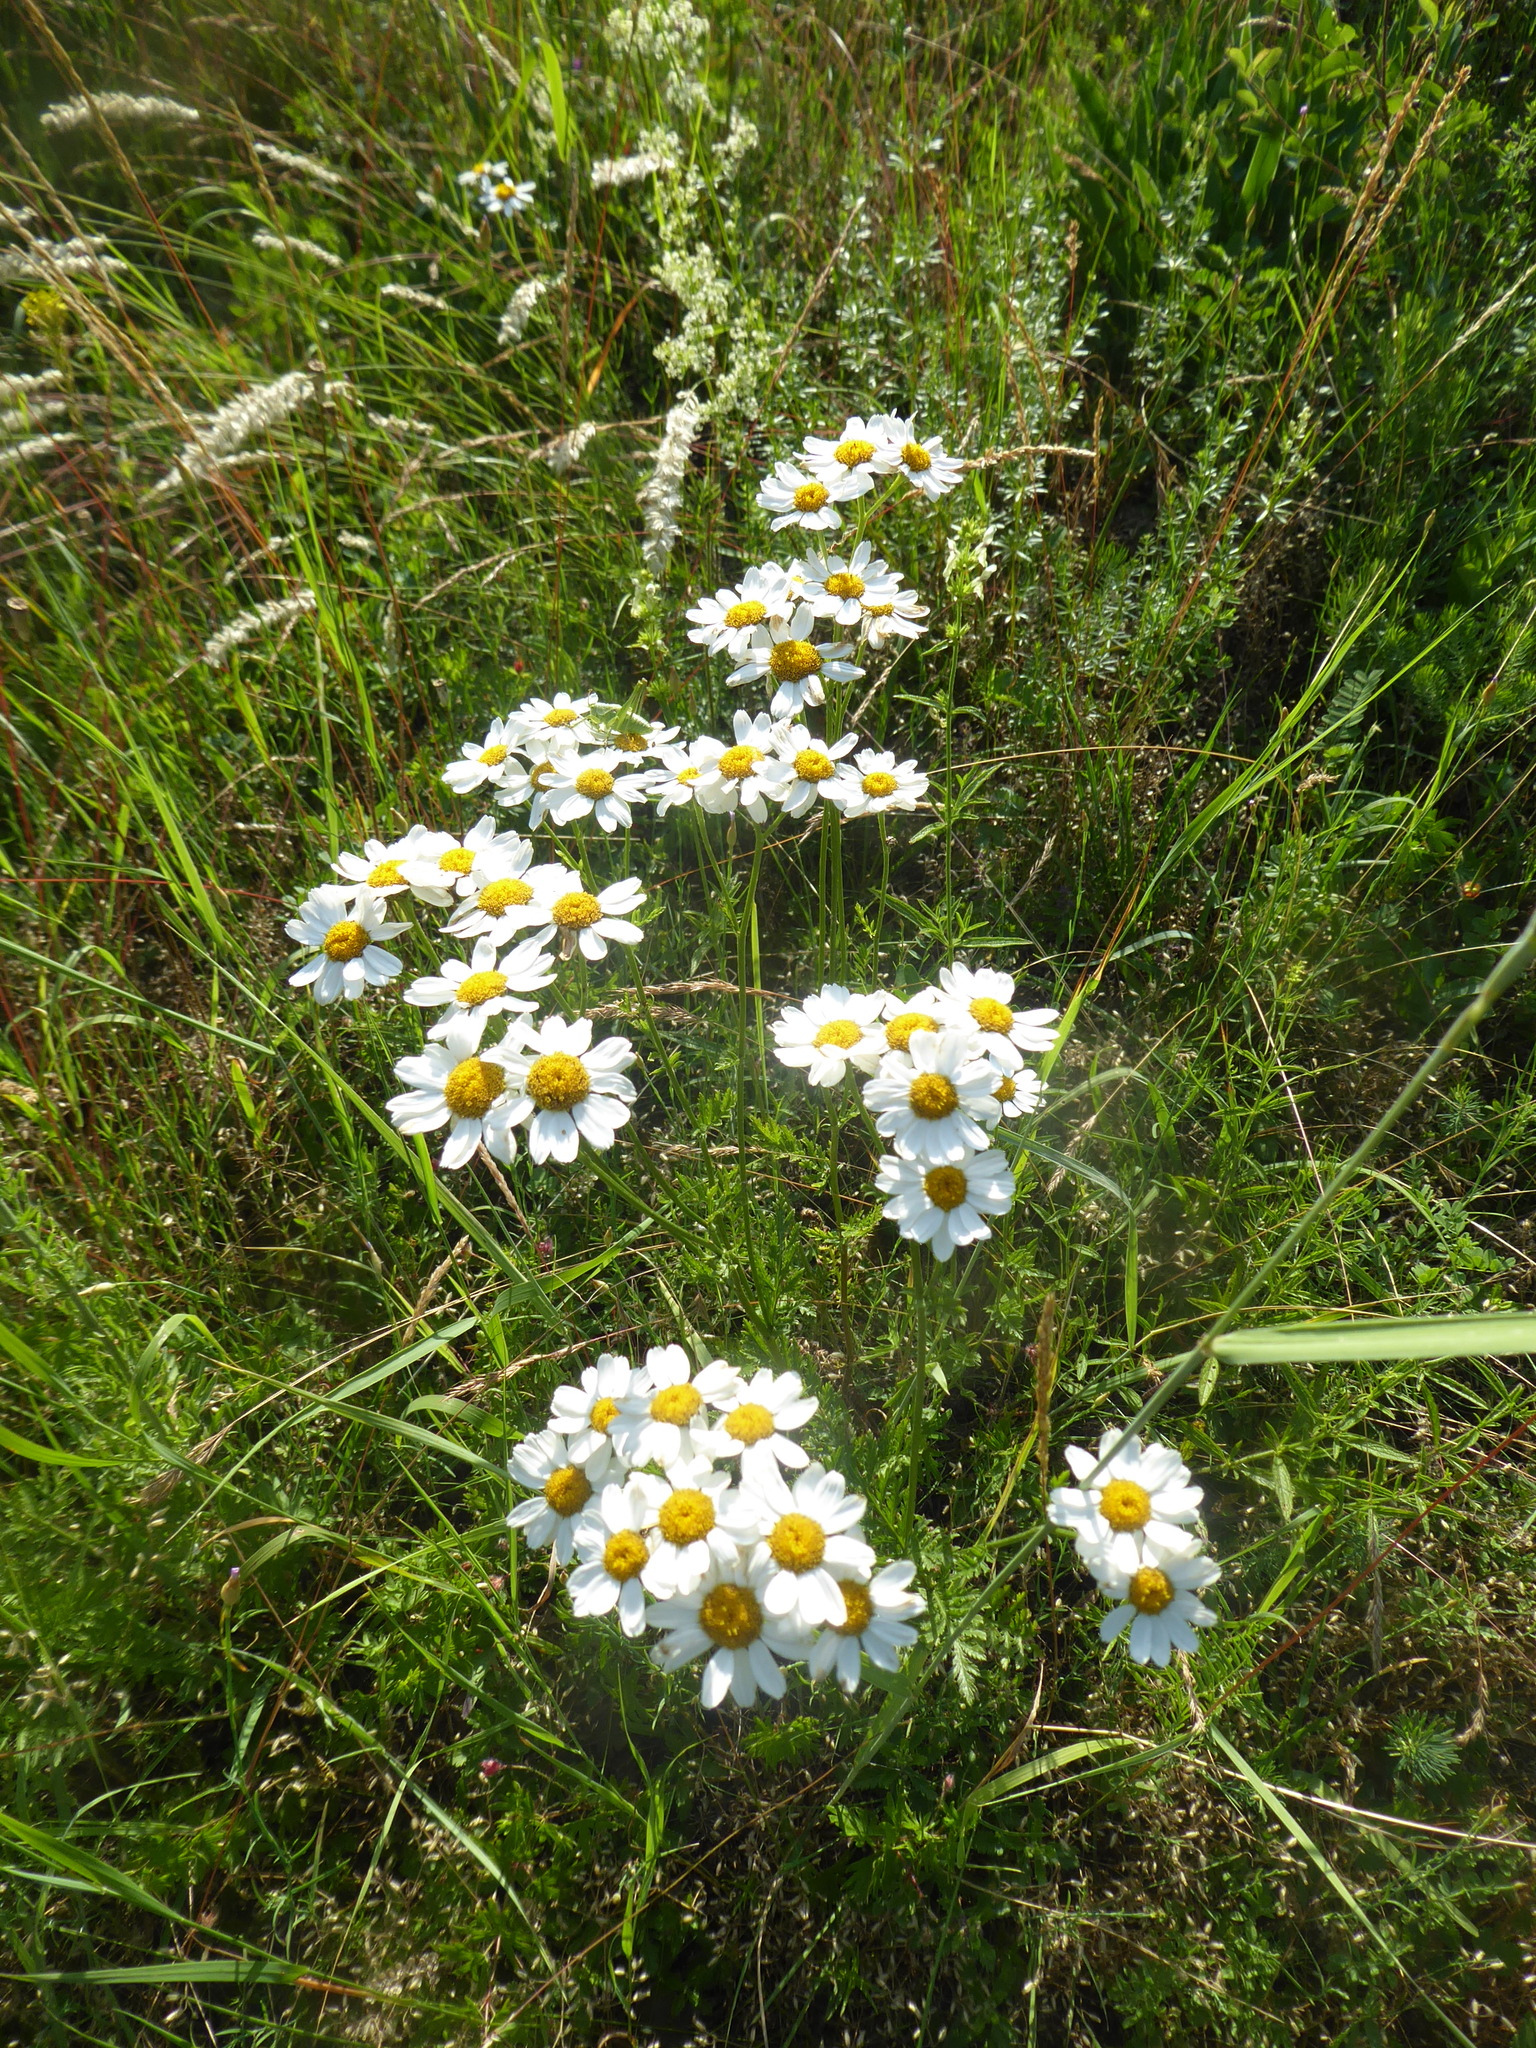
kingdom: Plantae
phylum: Tracheophyta
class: Magnoliopsida
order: Asterales
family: Asteraceae
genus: Tanacetum
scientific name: Tanacetum corymbosum
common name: Scentless feverfew
